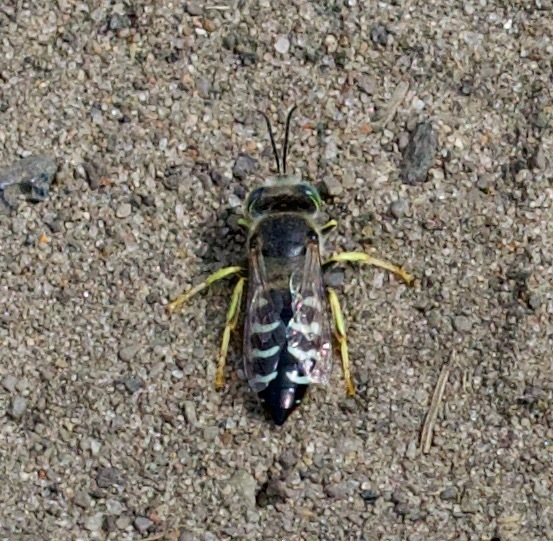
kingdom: Animalia
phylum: Arthropoda
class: Insecta
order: Hymenoptera
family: Crabronidae
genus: Bembix
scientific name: Bembix americana
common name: American sand wasp
